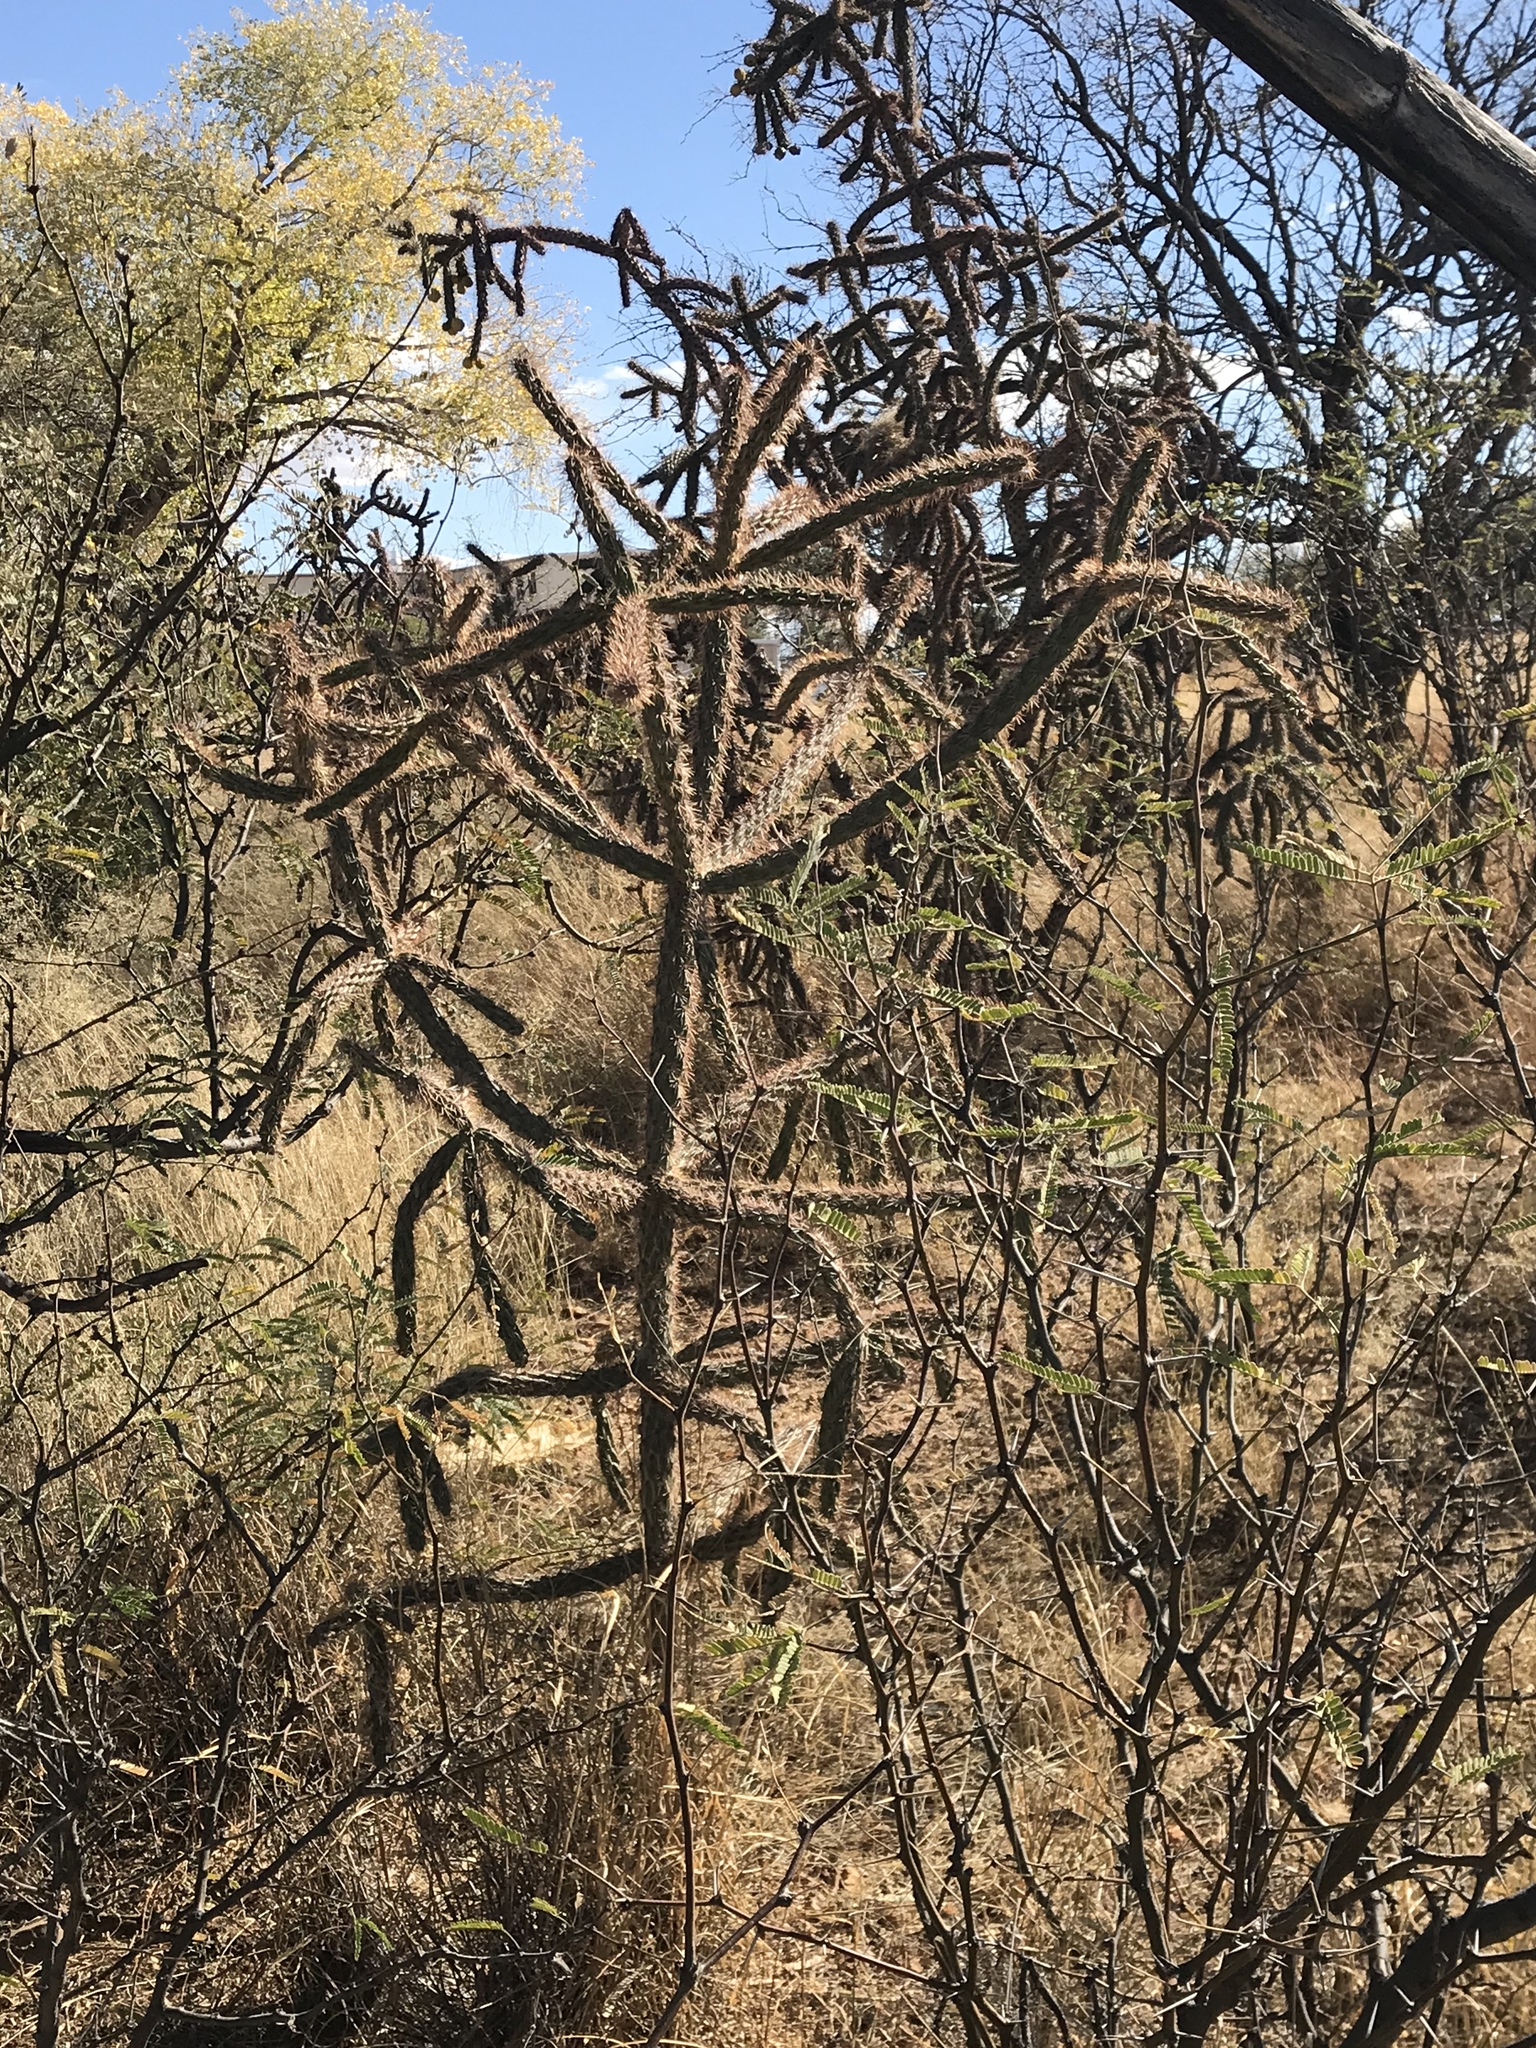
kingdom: Plantae
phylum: Tracheophyta
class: Magnoliopsida
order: Caryophyllales
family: Cactaceae
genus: Cylindropuntia
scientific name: Cylindropuntia imbricata
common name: Candelabrum cactus
